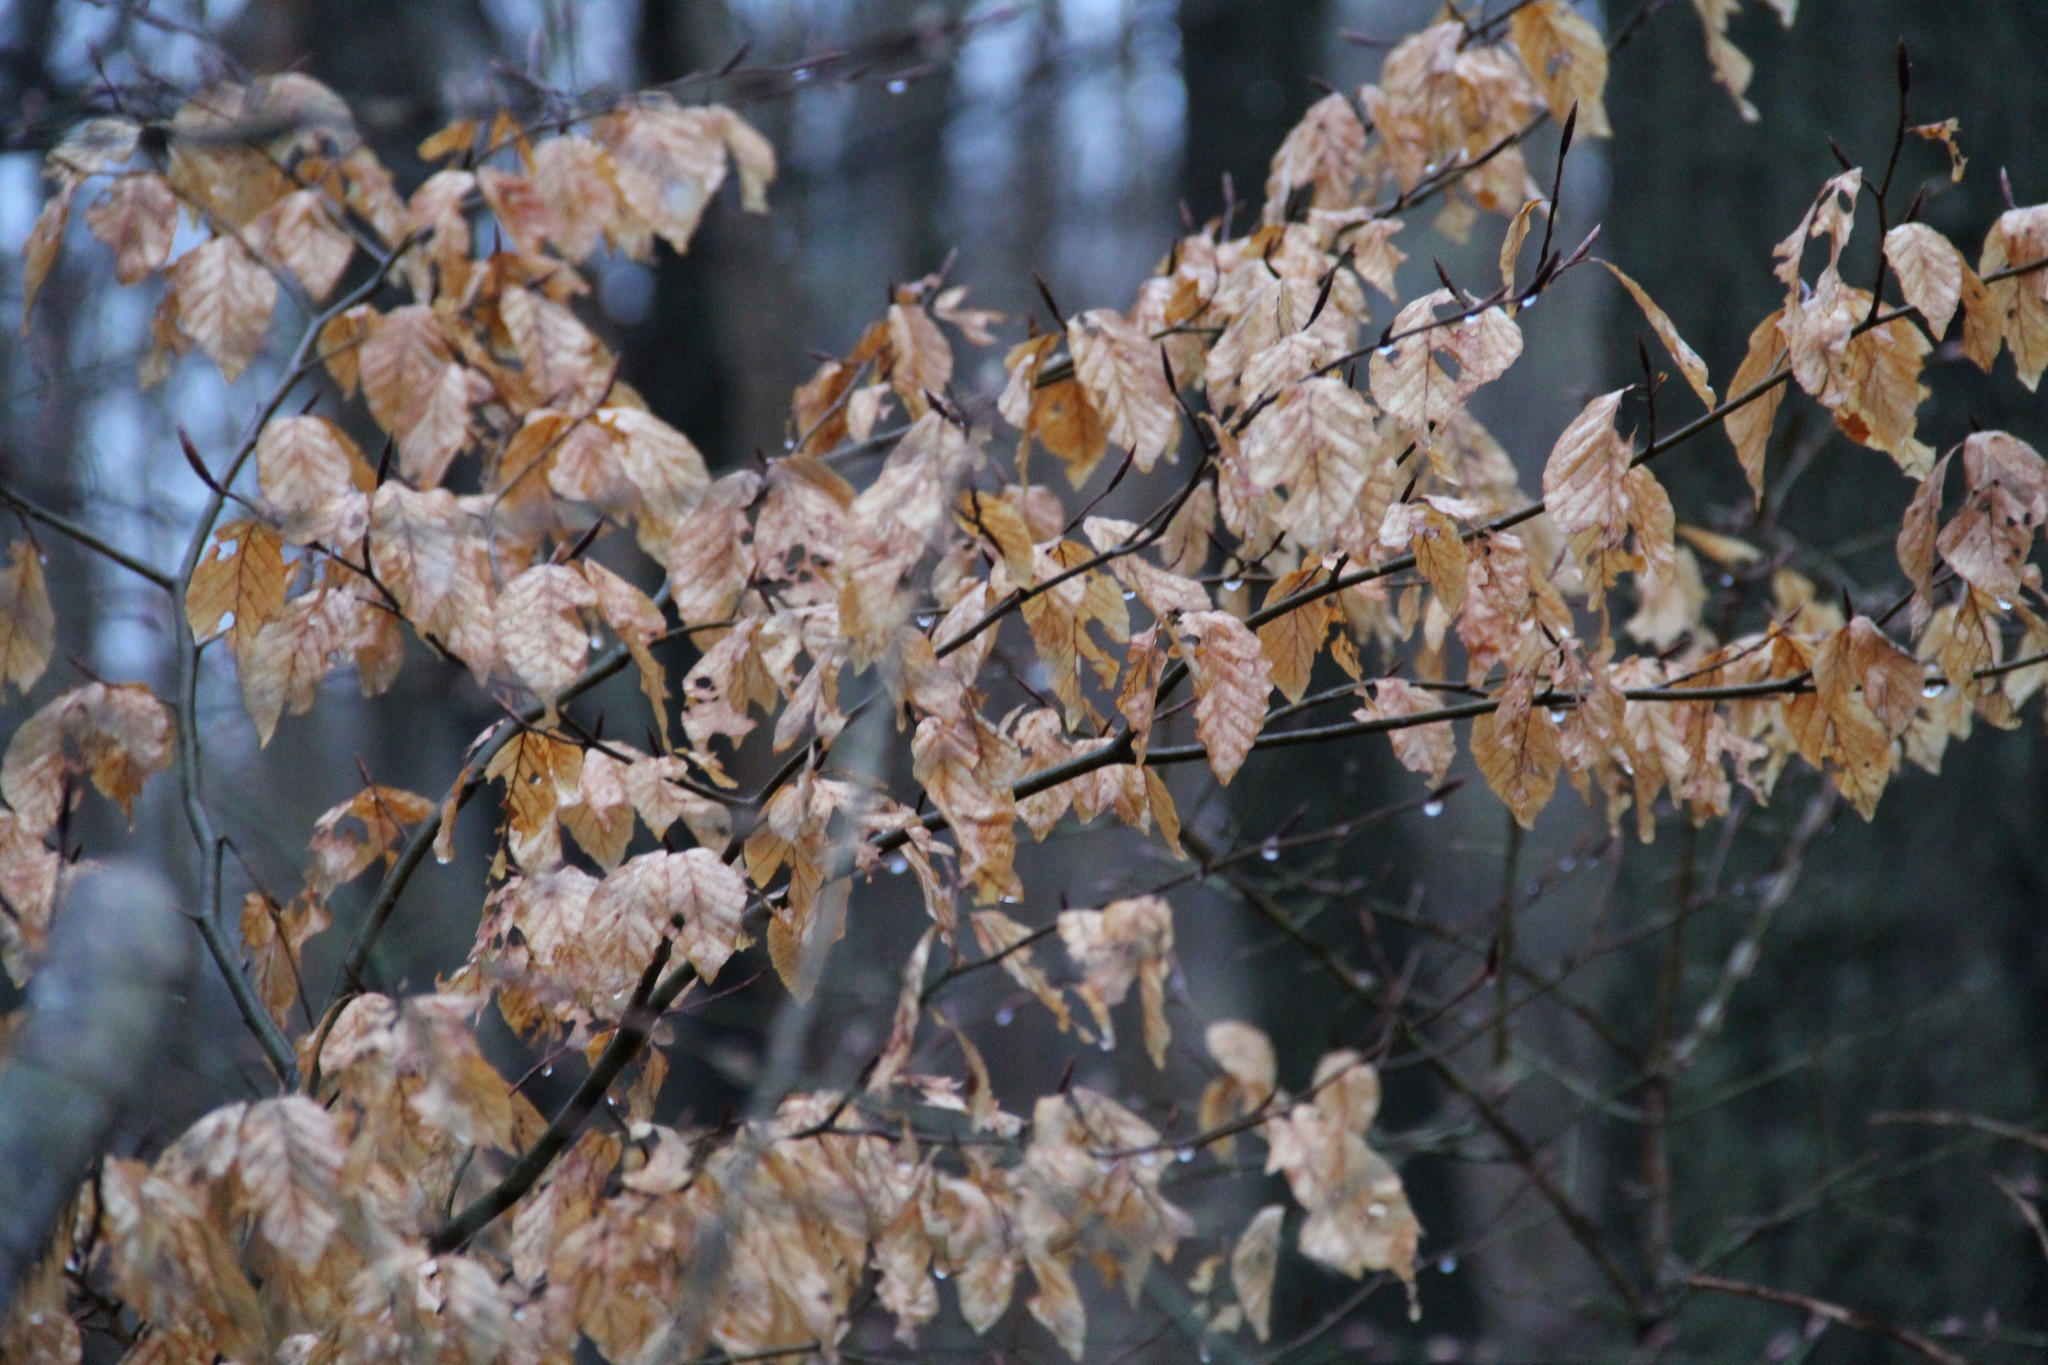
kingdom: Plantae
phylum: Tracheophyta
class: Magnoliopsida
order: Fagales
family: Fagaceae
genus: Fagus
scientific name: Fagus grandifolia
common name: American beech
